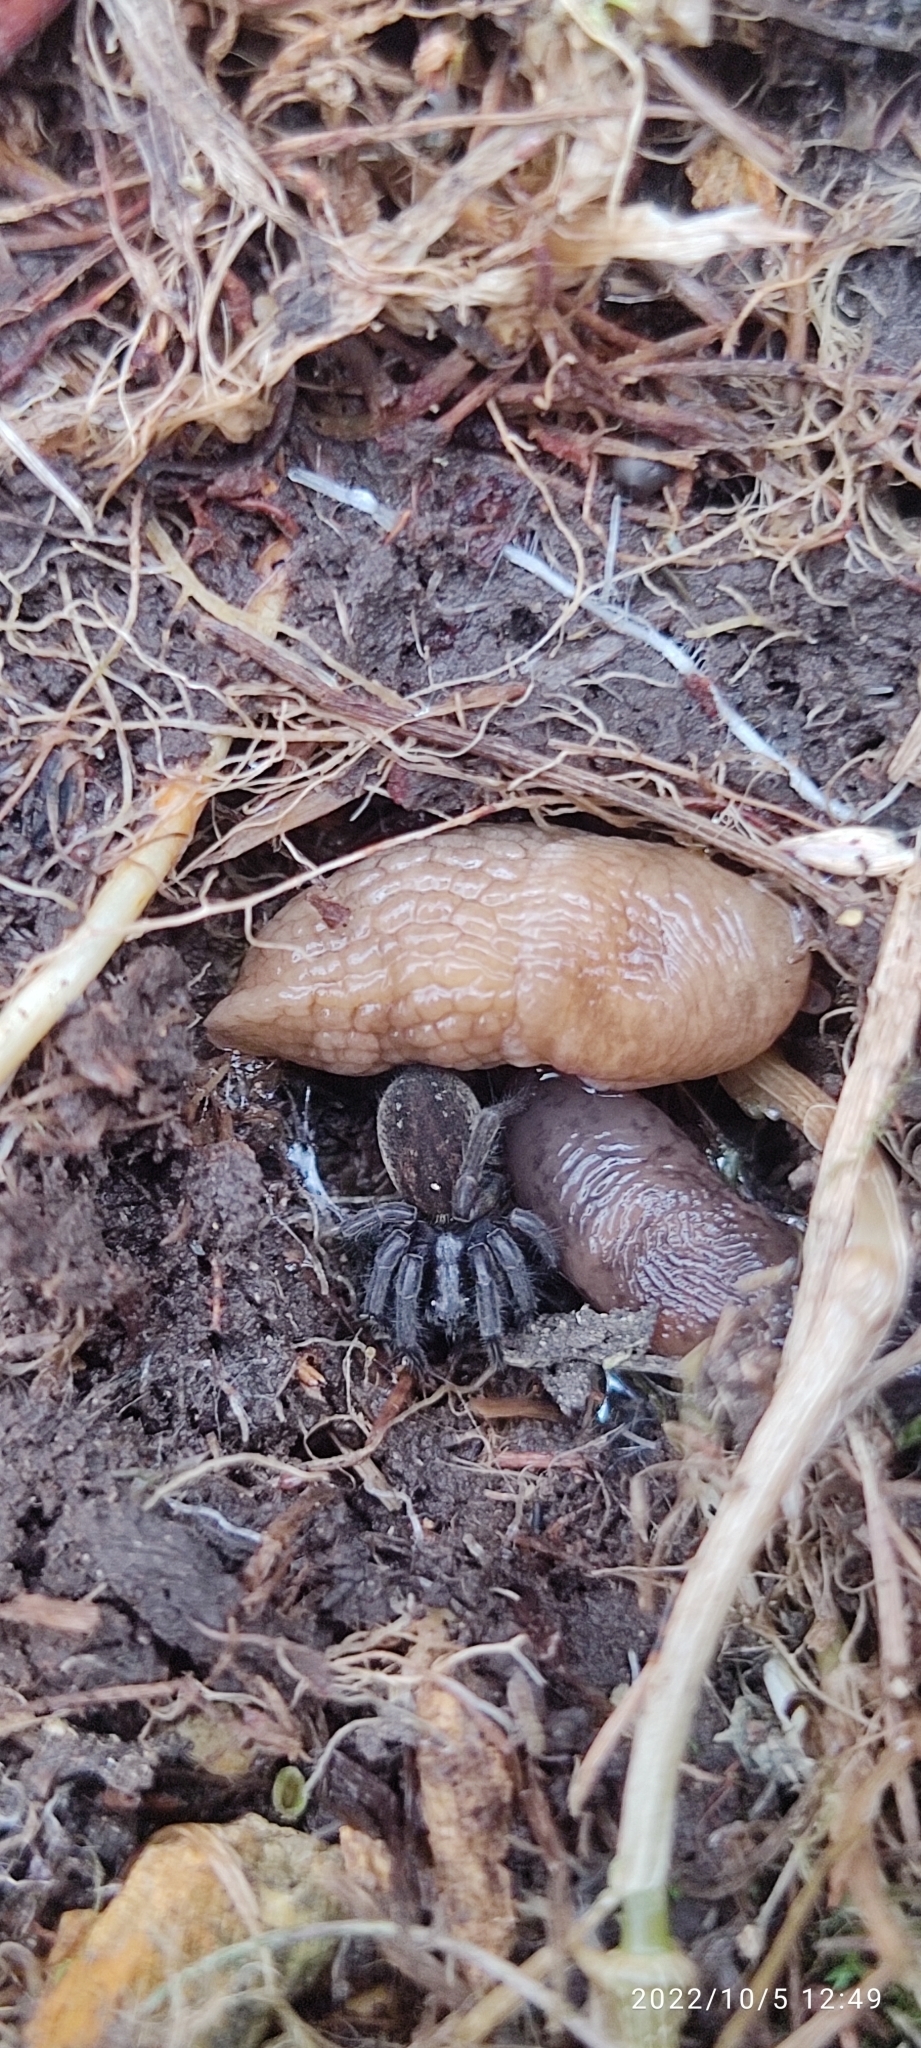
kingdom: Animalia
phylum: Mollusca
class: Gastropoda
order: Stylommatophora
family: Agriolimacidae
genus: Deroceras
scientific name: Deroceras reticulatum
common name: Gray field slug
